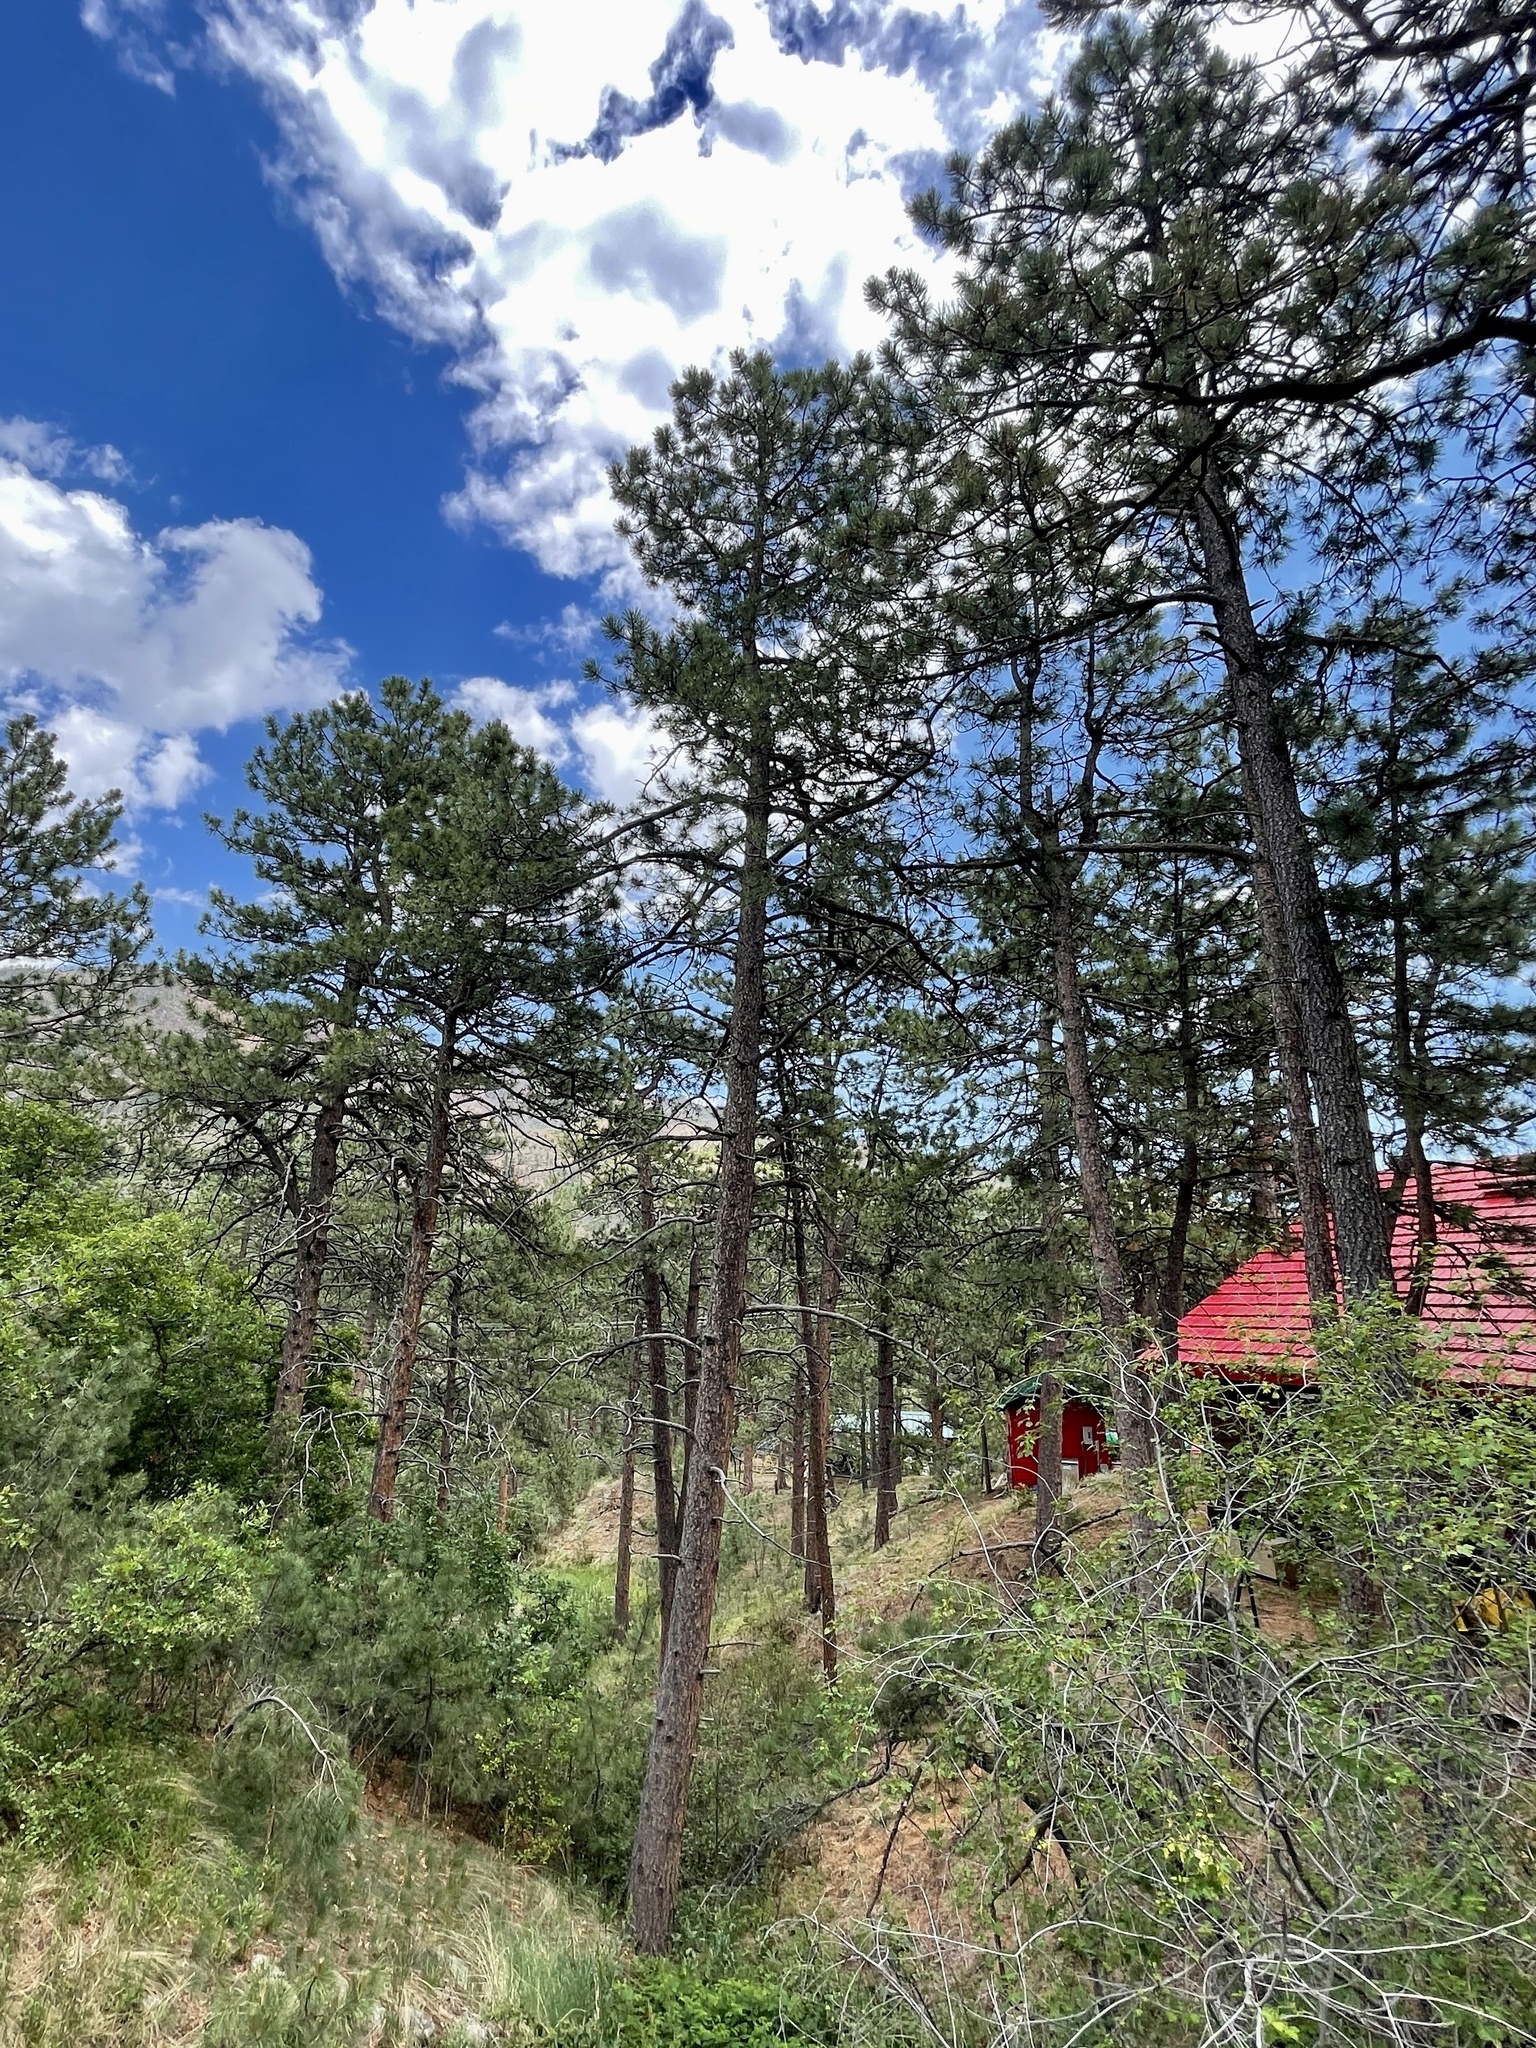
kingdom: Plantae
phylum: Tracheophyta
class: Pinopsida
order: Pinales
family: Pinaceae
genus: Pinus
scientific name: Pinus ponderosa
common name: Western yellow-pine
